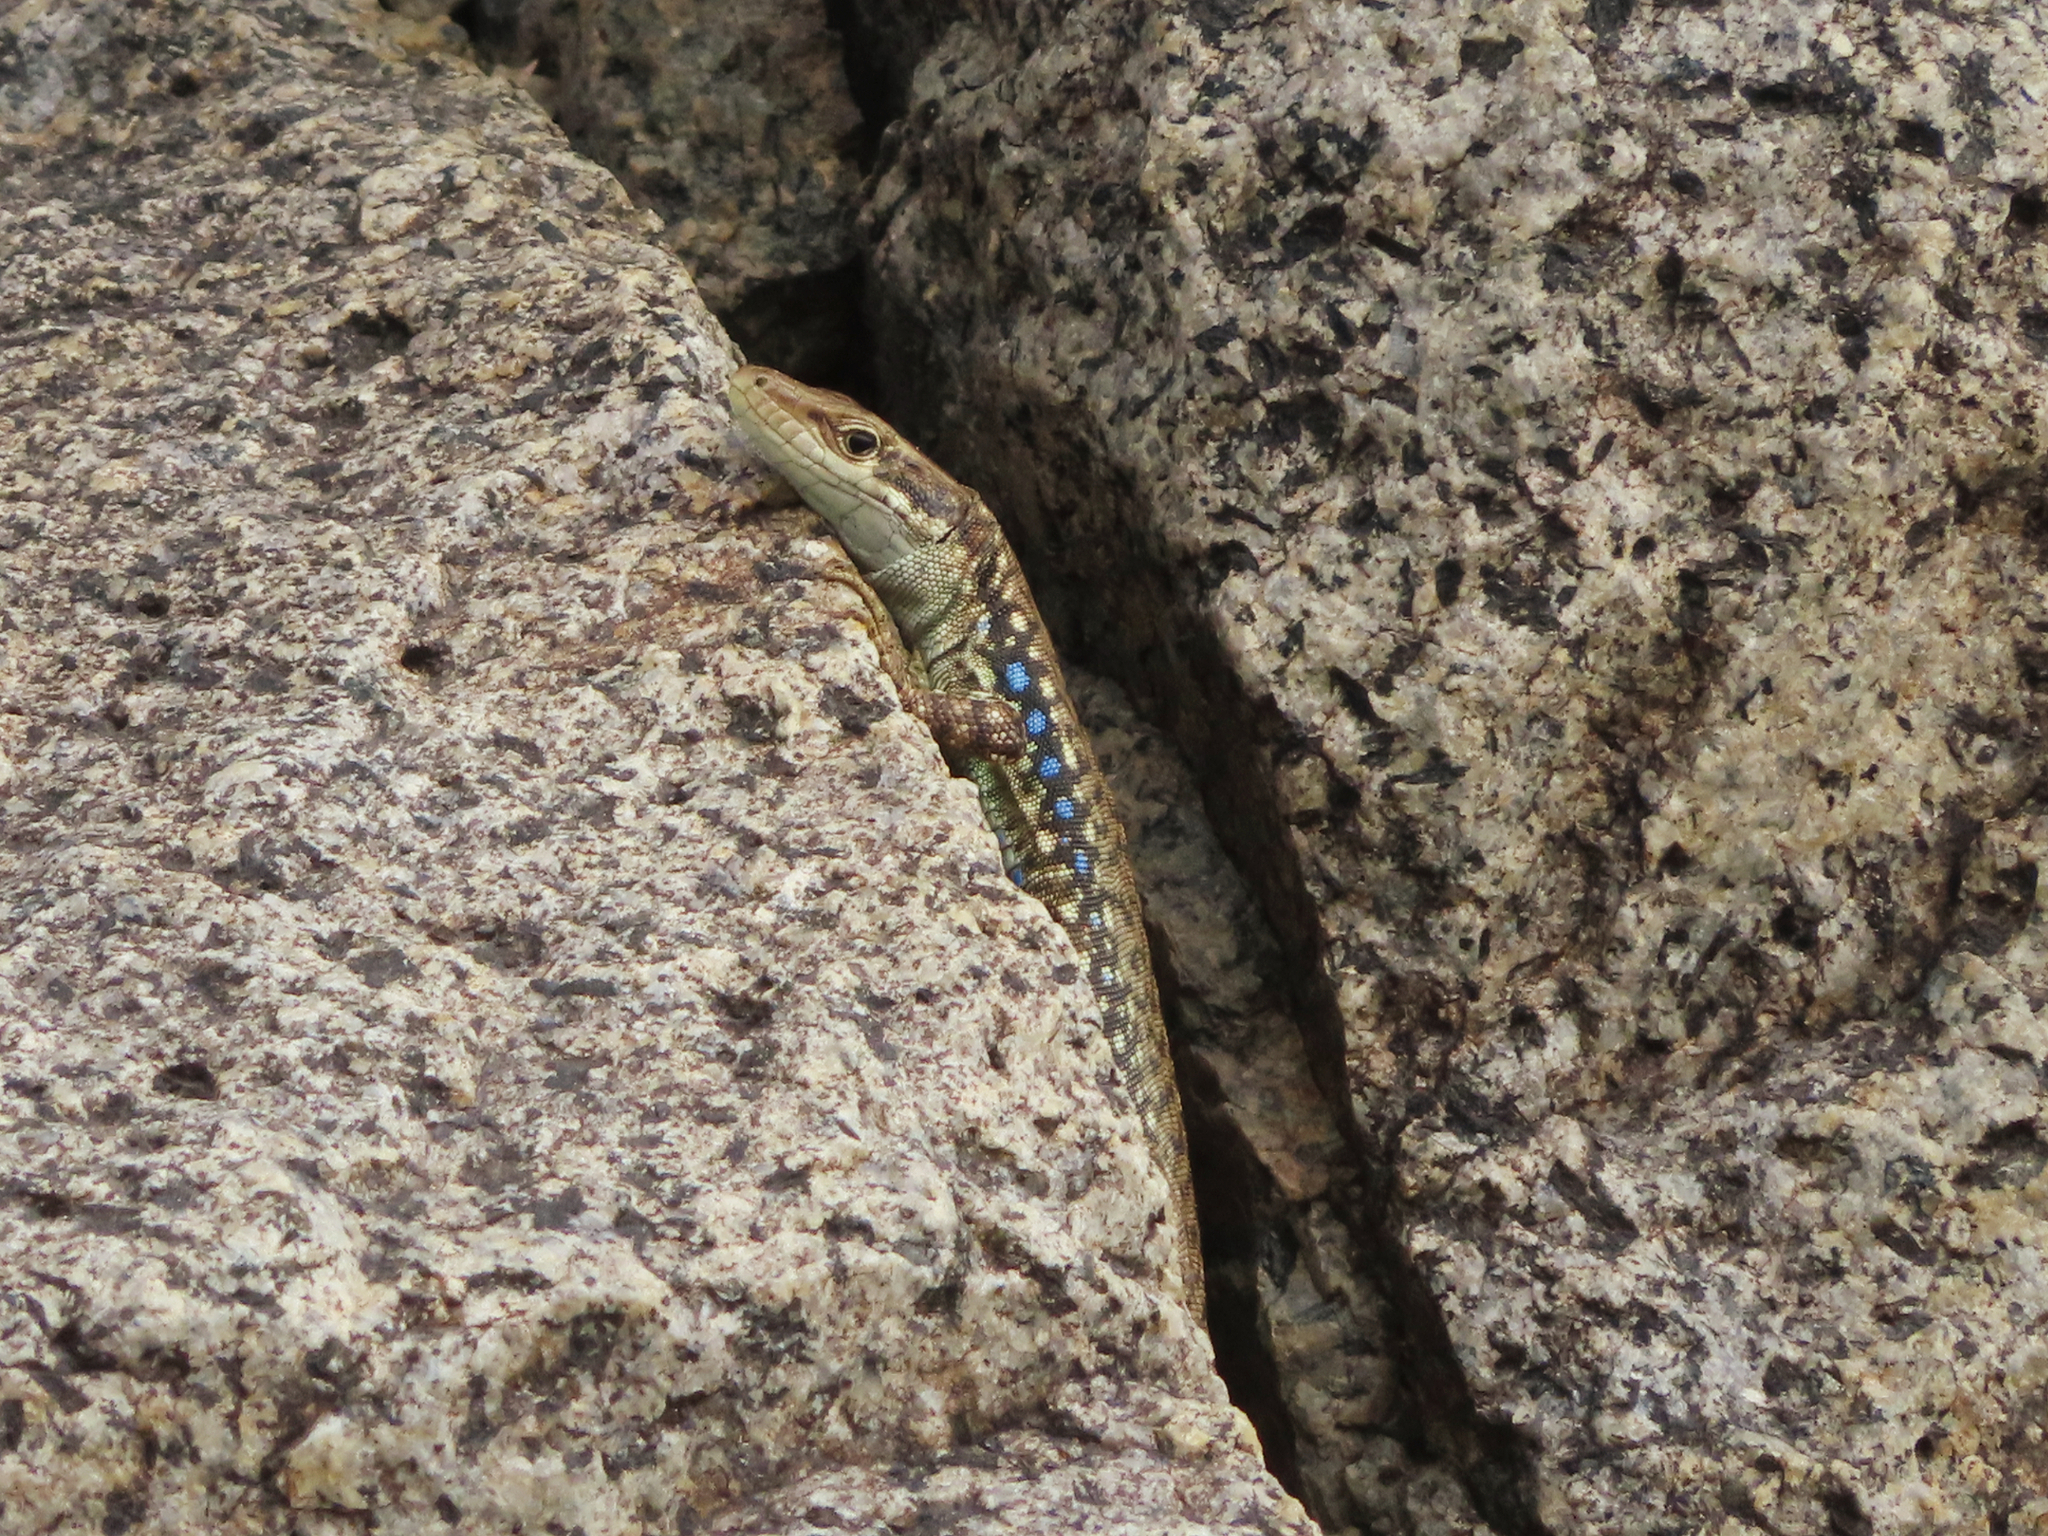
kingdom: Animalia
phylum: Chordata
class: Squamata
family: Lacertidae
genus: Darevskia
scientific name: Darevskia raddei
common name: Radde's lizard
